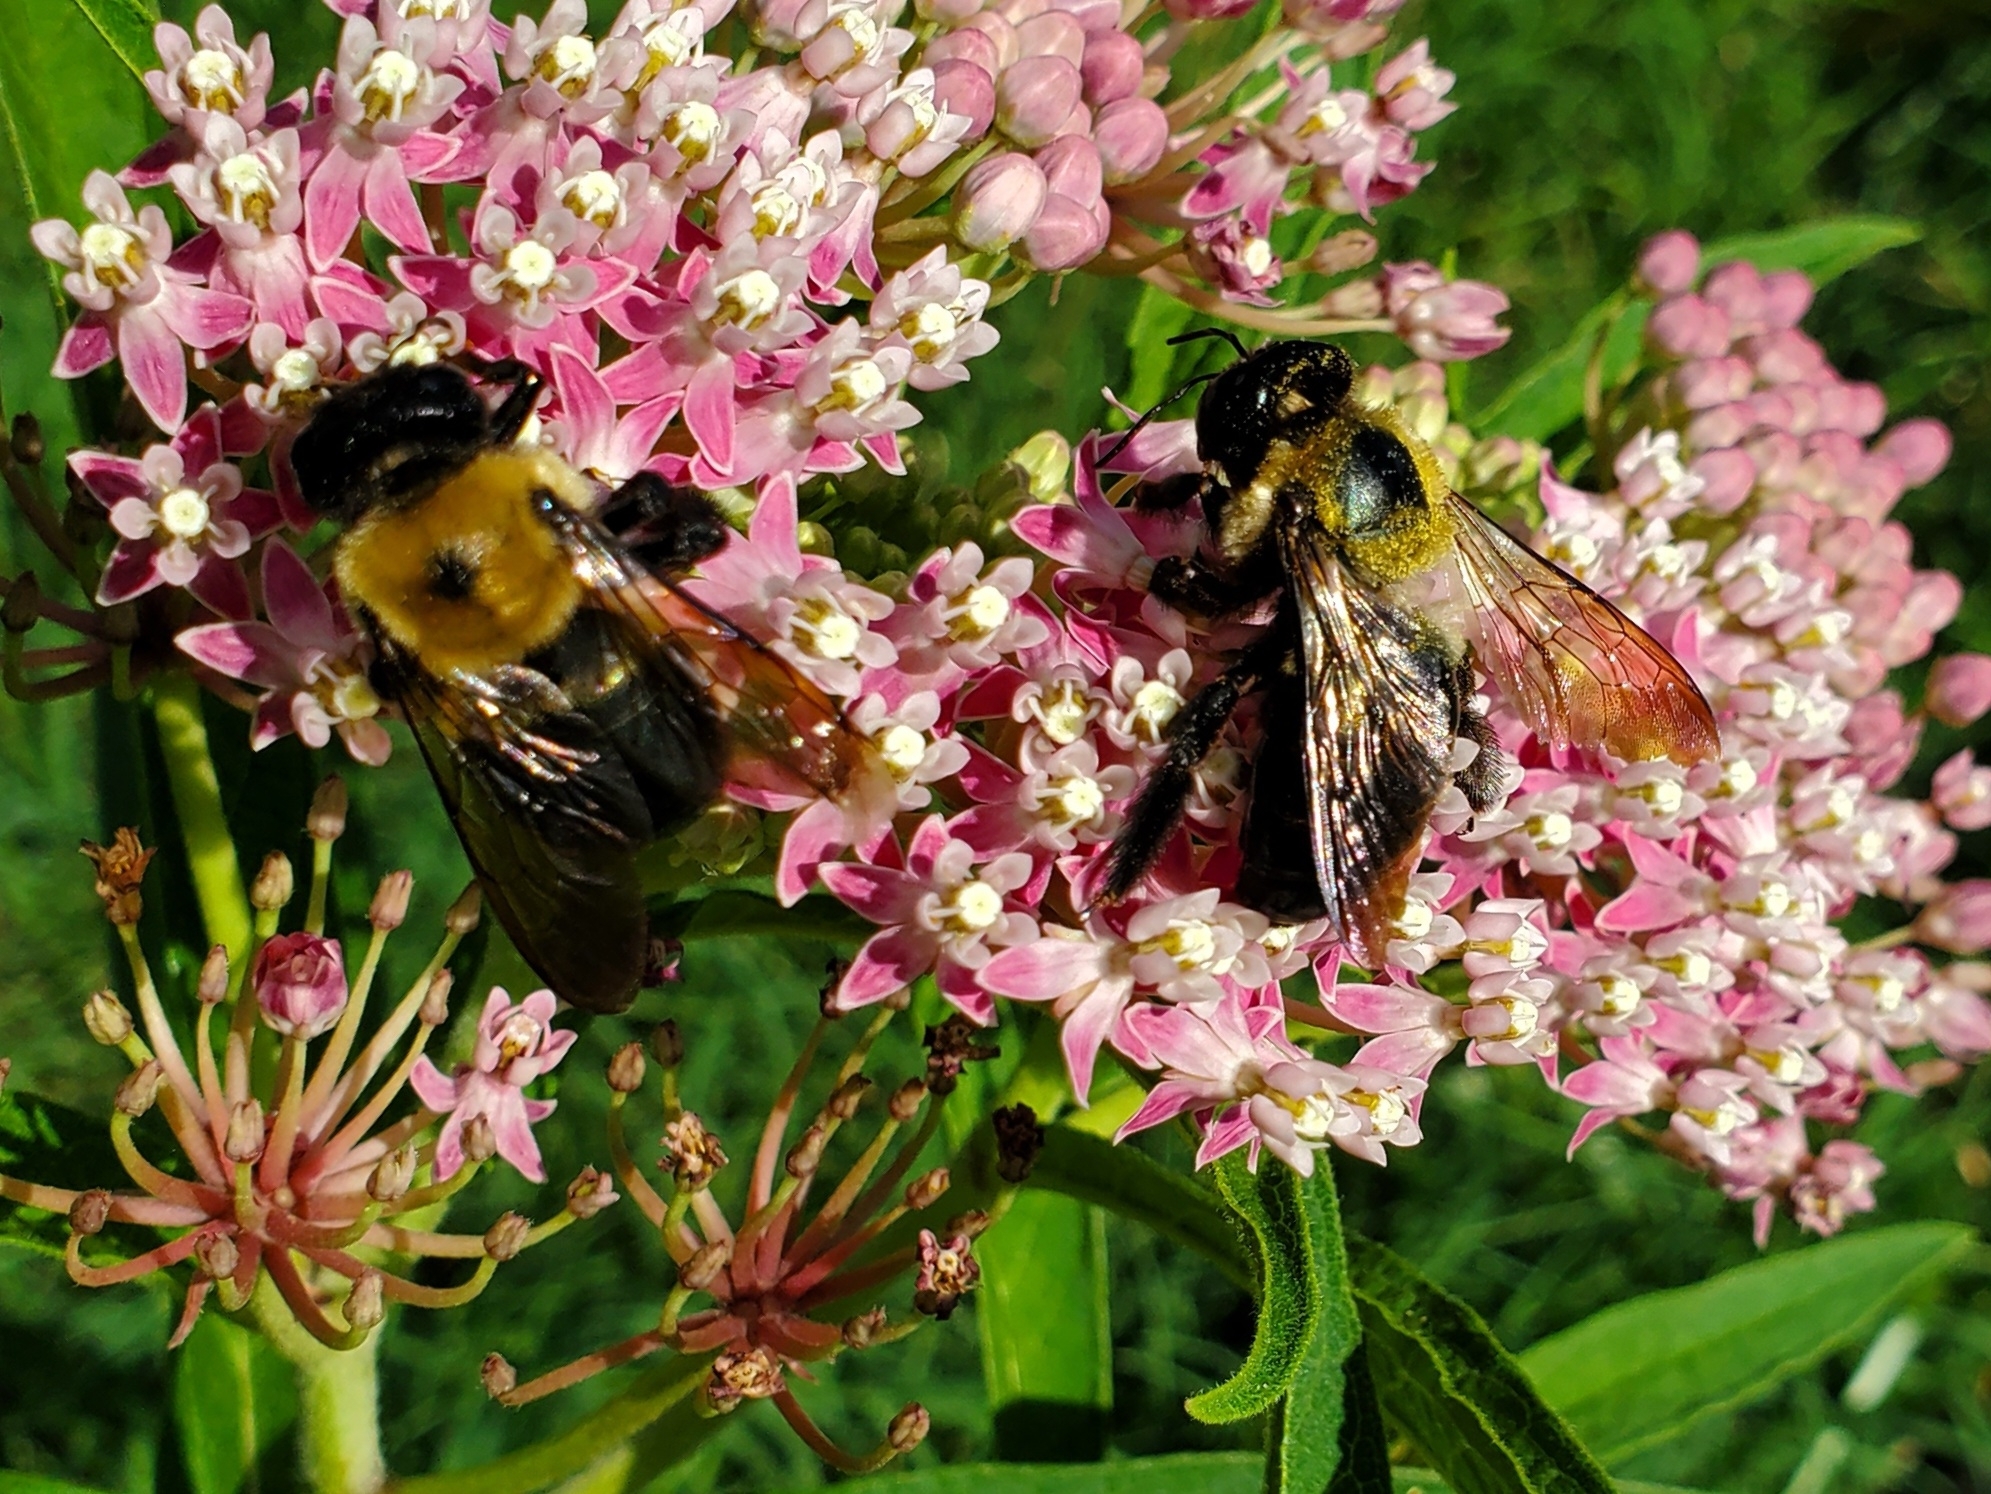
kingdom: Animalia
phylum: Arthropoda
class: Insecta
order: Hymenoptera
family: Apidae
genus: Xylocopa
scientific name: Xylocopa virginica
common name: Carpenter bee
